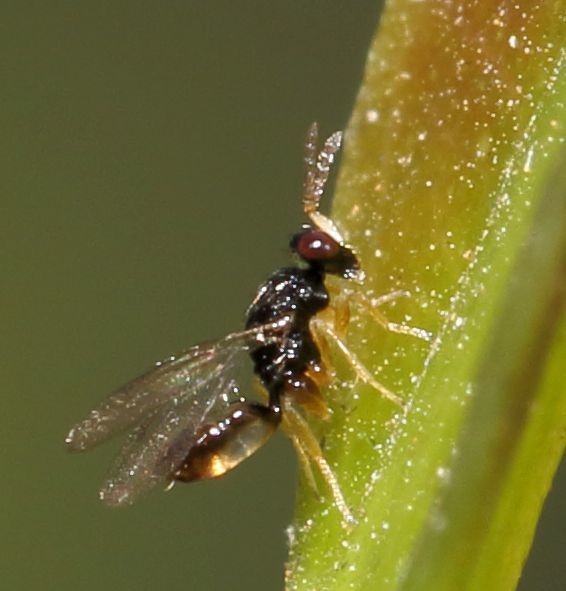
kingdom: Animalia
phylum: Arthropoda
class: Insecta
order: Hymenoptera
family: Eulophidae
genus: Euplectrus
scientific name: Euplectrus
